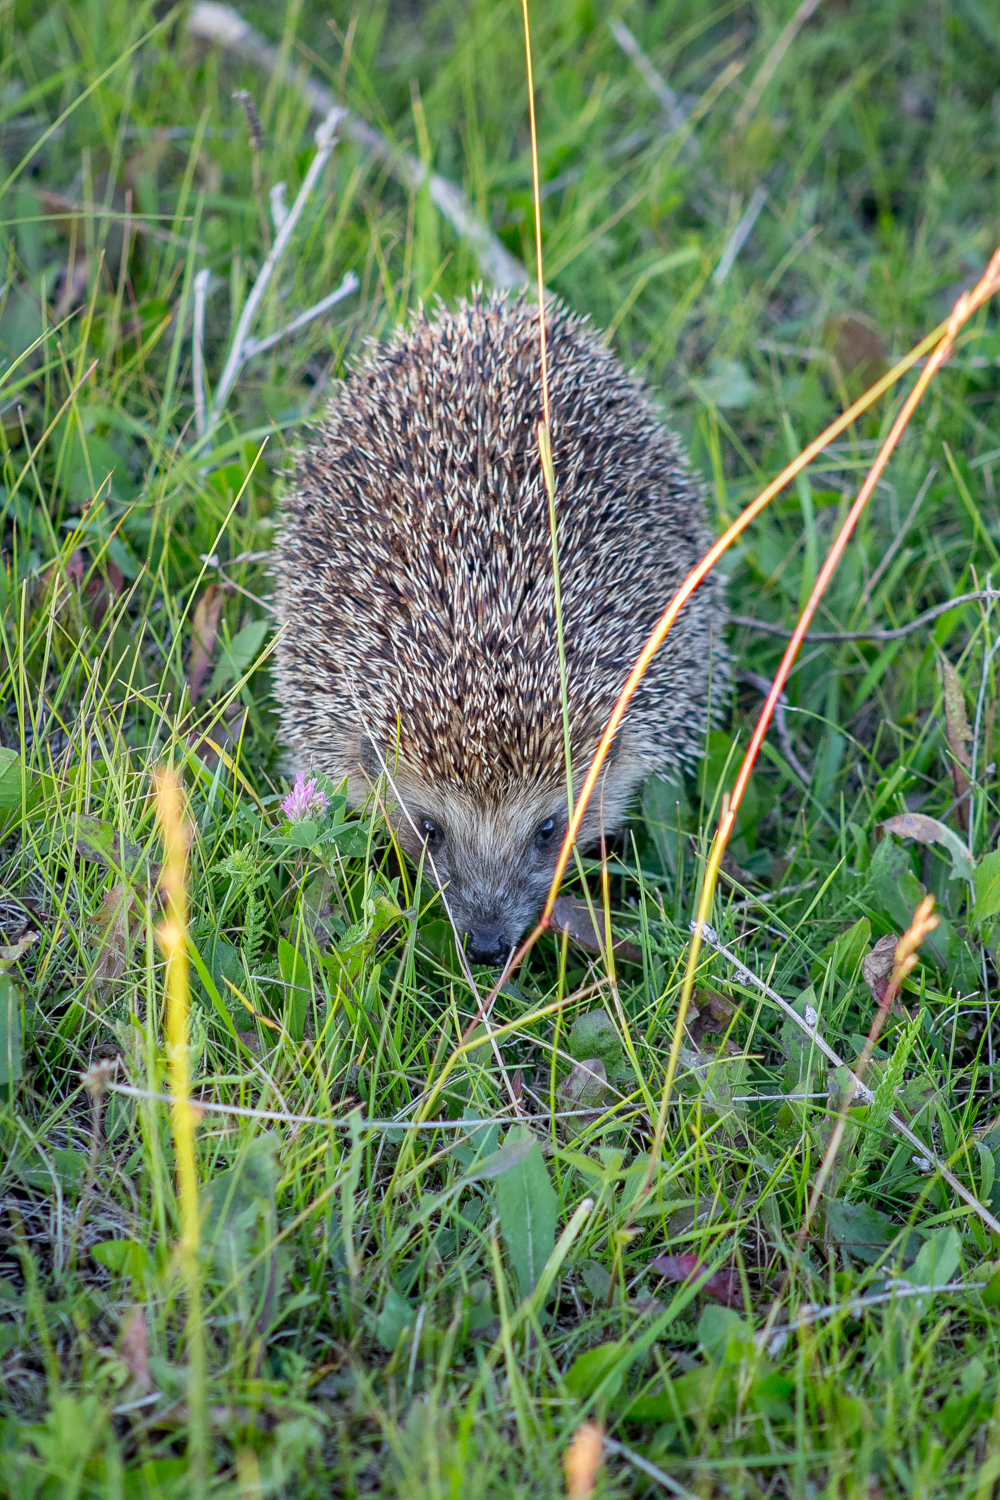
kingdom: Animalia
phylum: Chordata
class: Mammalia
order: Erinaceomorpha
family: Erinaceidae
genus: Erinaceus
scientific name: Erinaceus roumanicus
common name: Northern white-breasted hedgehog
